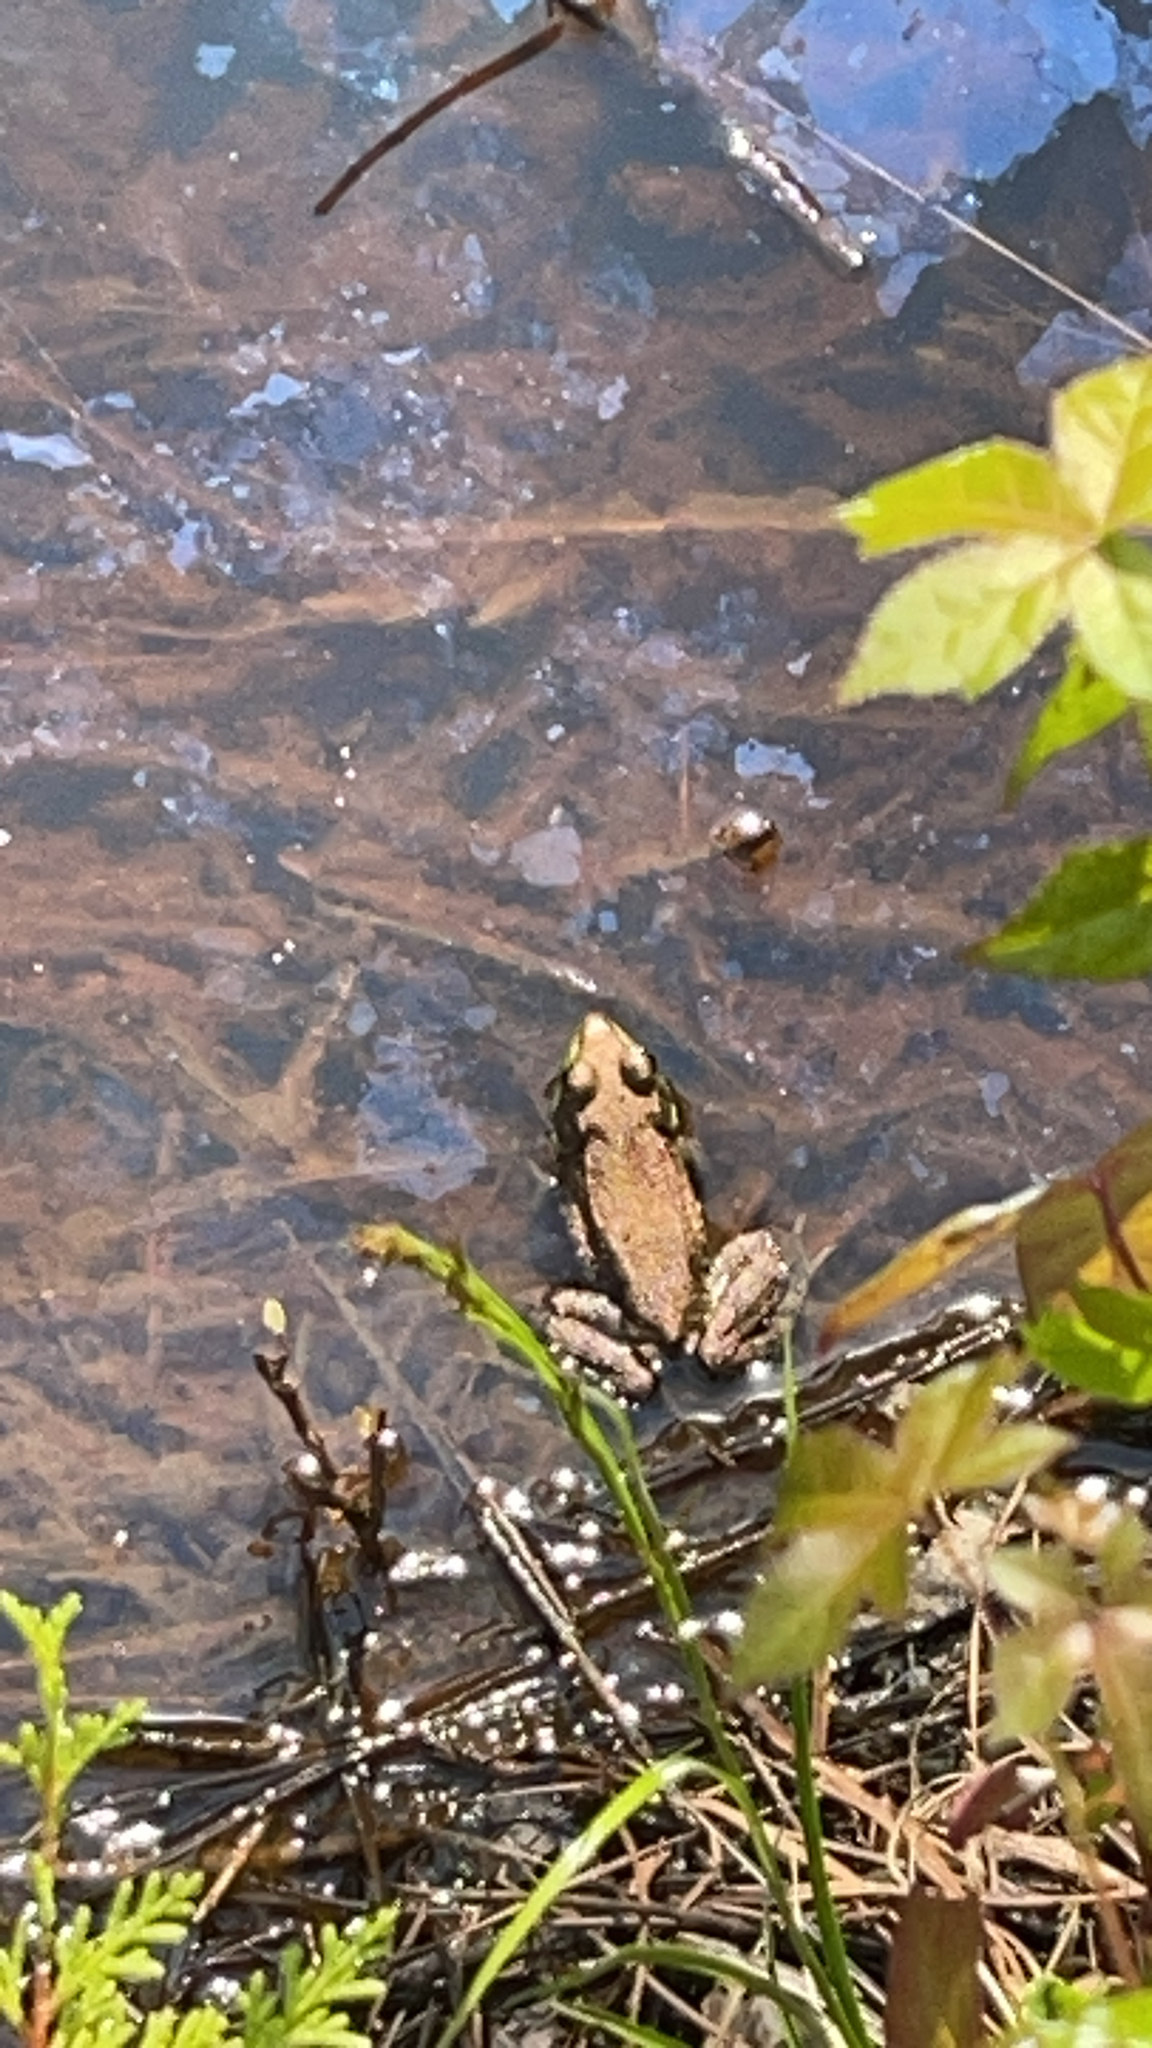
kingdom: Animalia
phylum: Chordata
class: Amphibia
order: Anura
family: Ranidae
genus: Lithobates
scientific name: Lithobates clamitans
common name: Green frog
